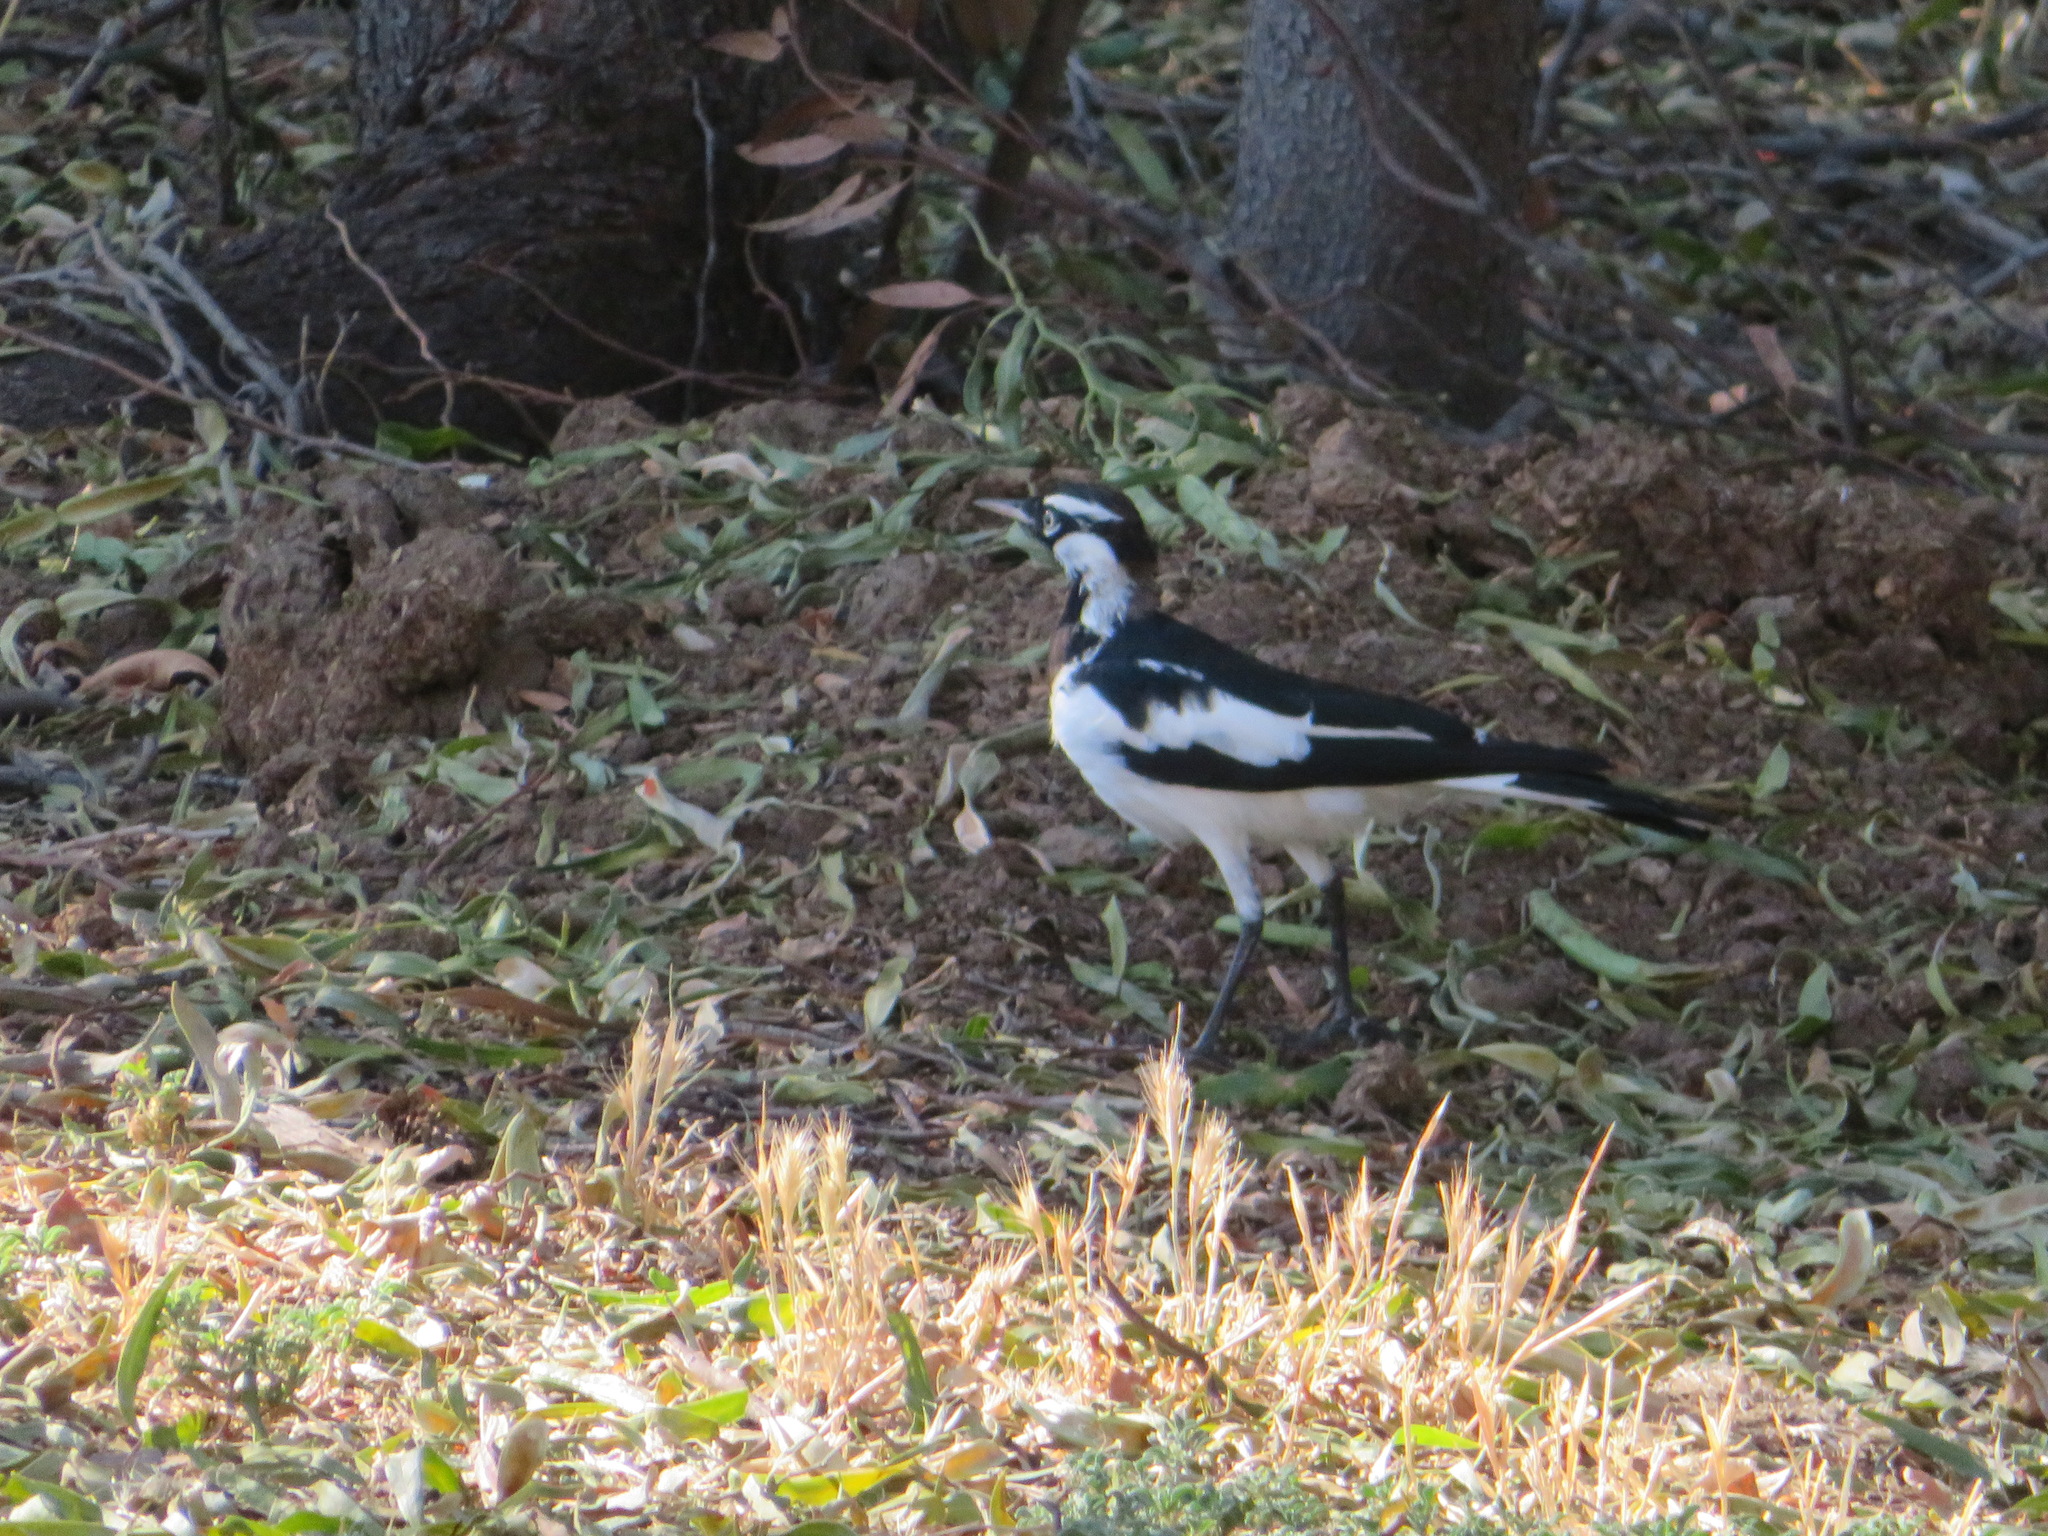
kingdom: Animalia
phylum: Chordata
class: Aves
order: Passeriformes
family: Monarchidae
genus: Grallina
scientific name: Grallina cyanoleuca
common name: Magpie-lark
